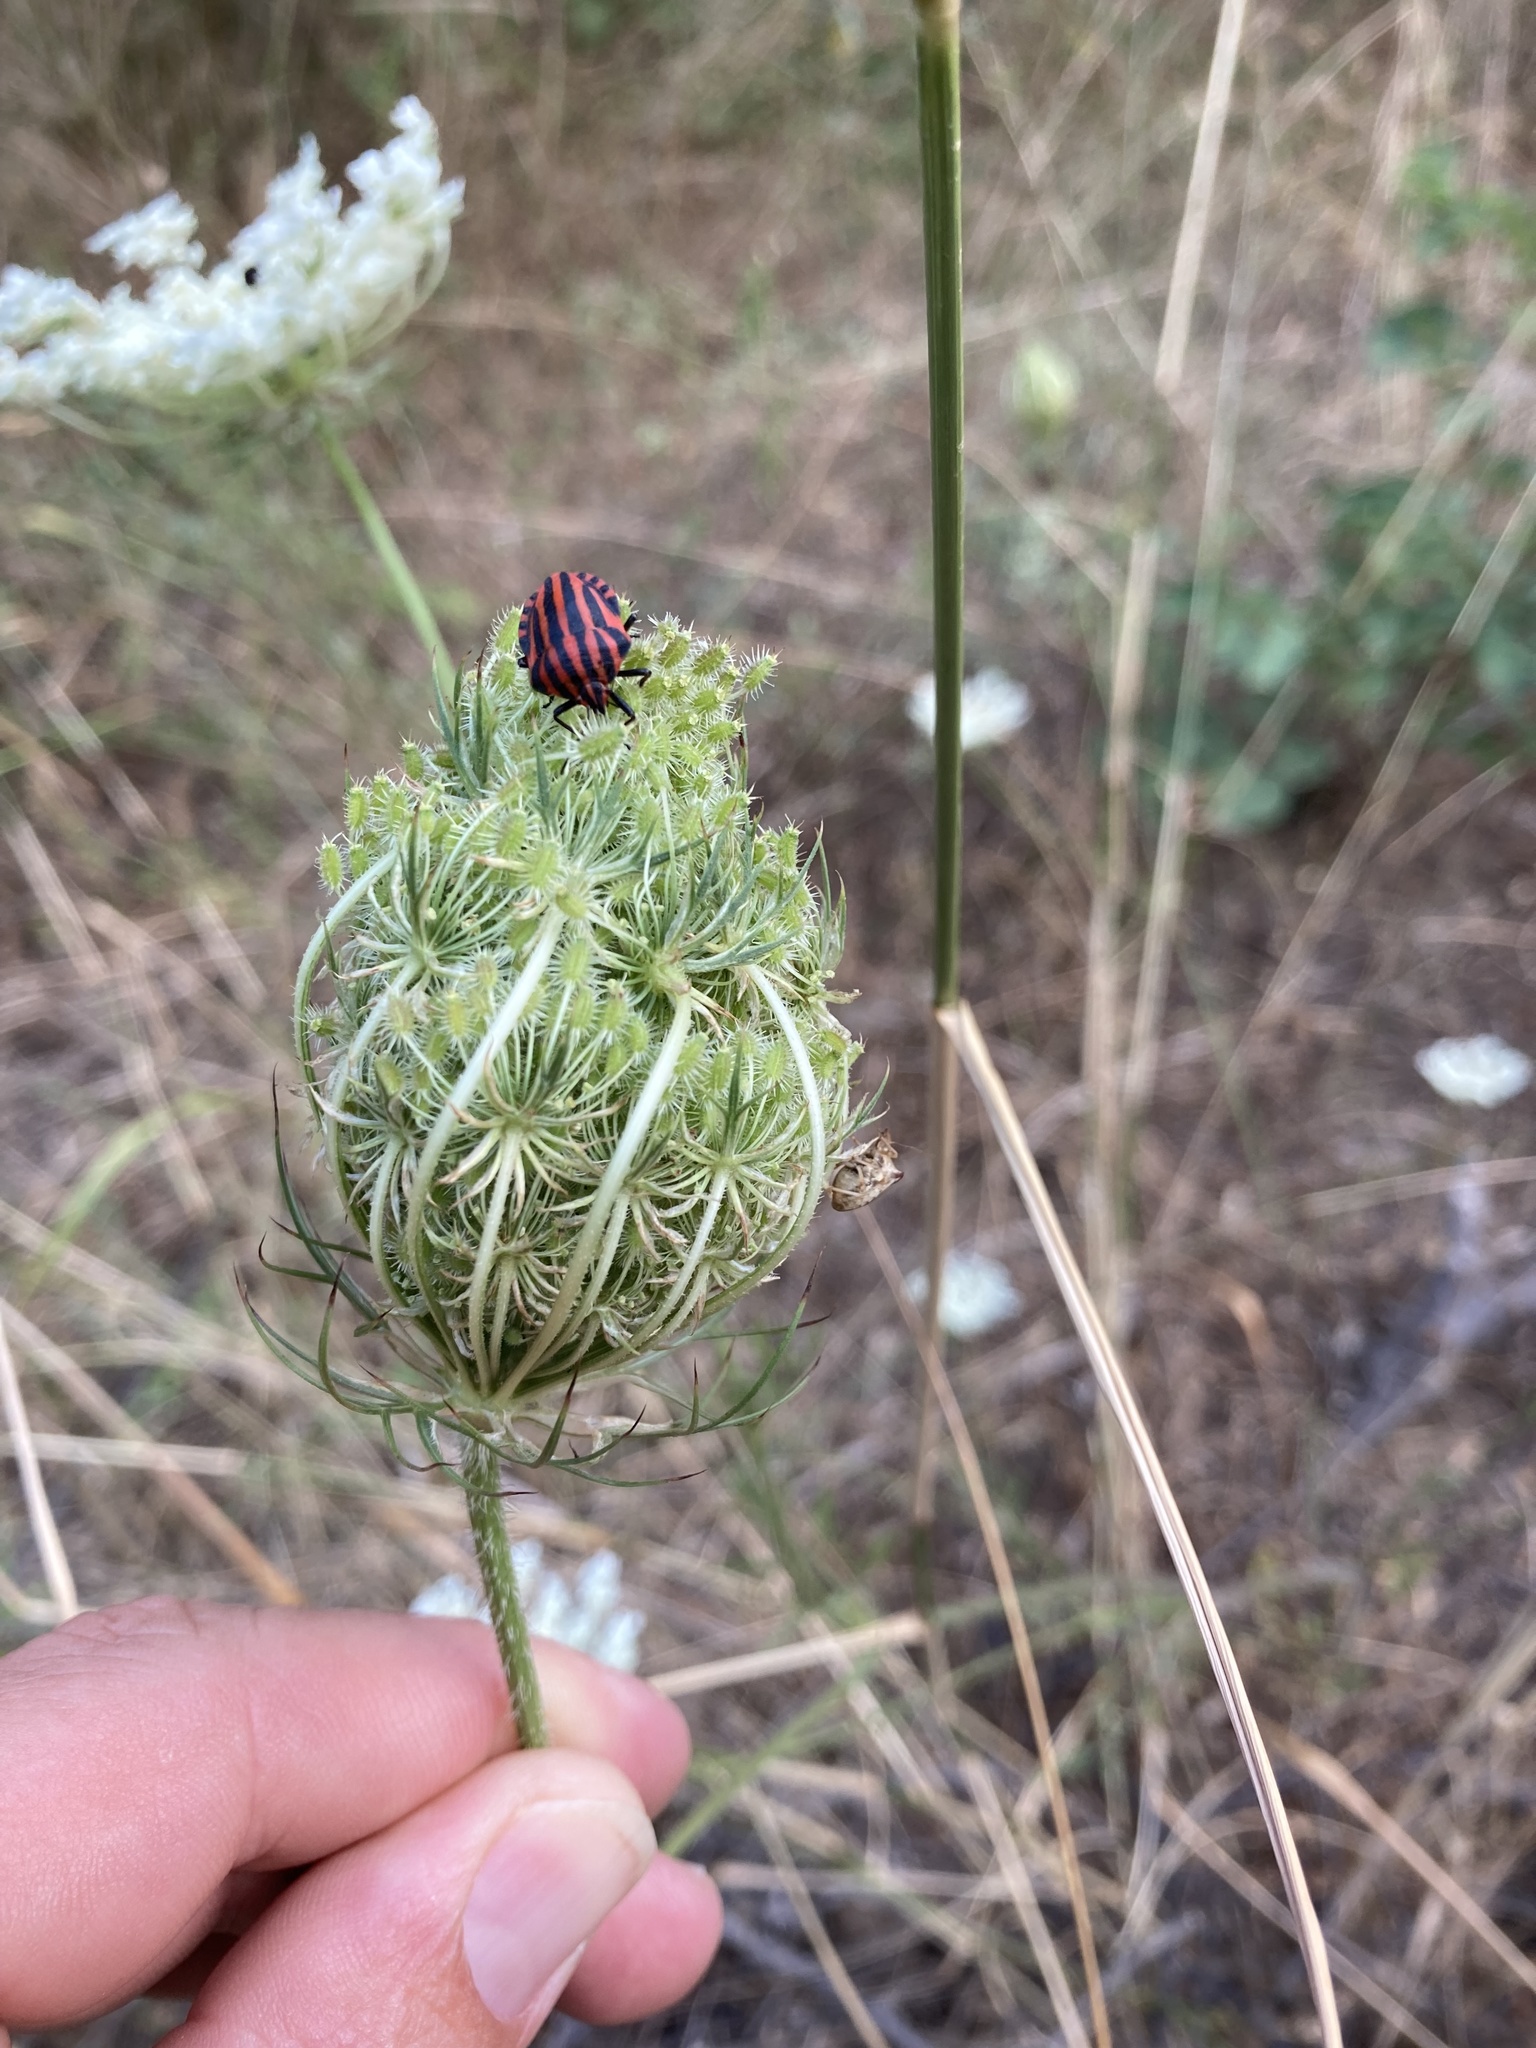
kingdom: Animalia
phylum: Arthropoda
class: Insecta
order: Hemiptera
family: Pentatomidae
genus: Graphosoma
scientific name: Graphosoma italicum
